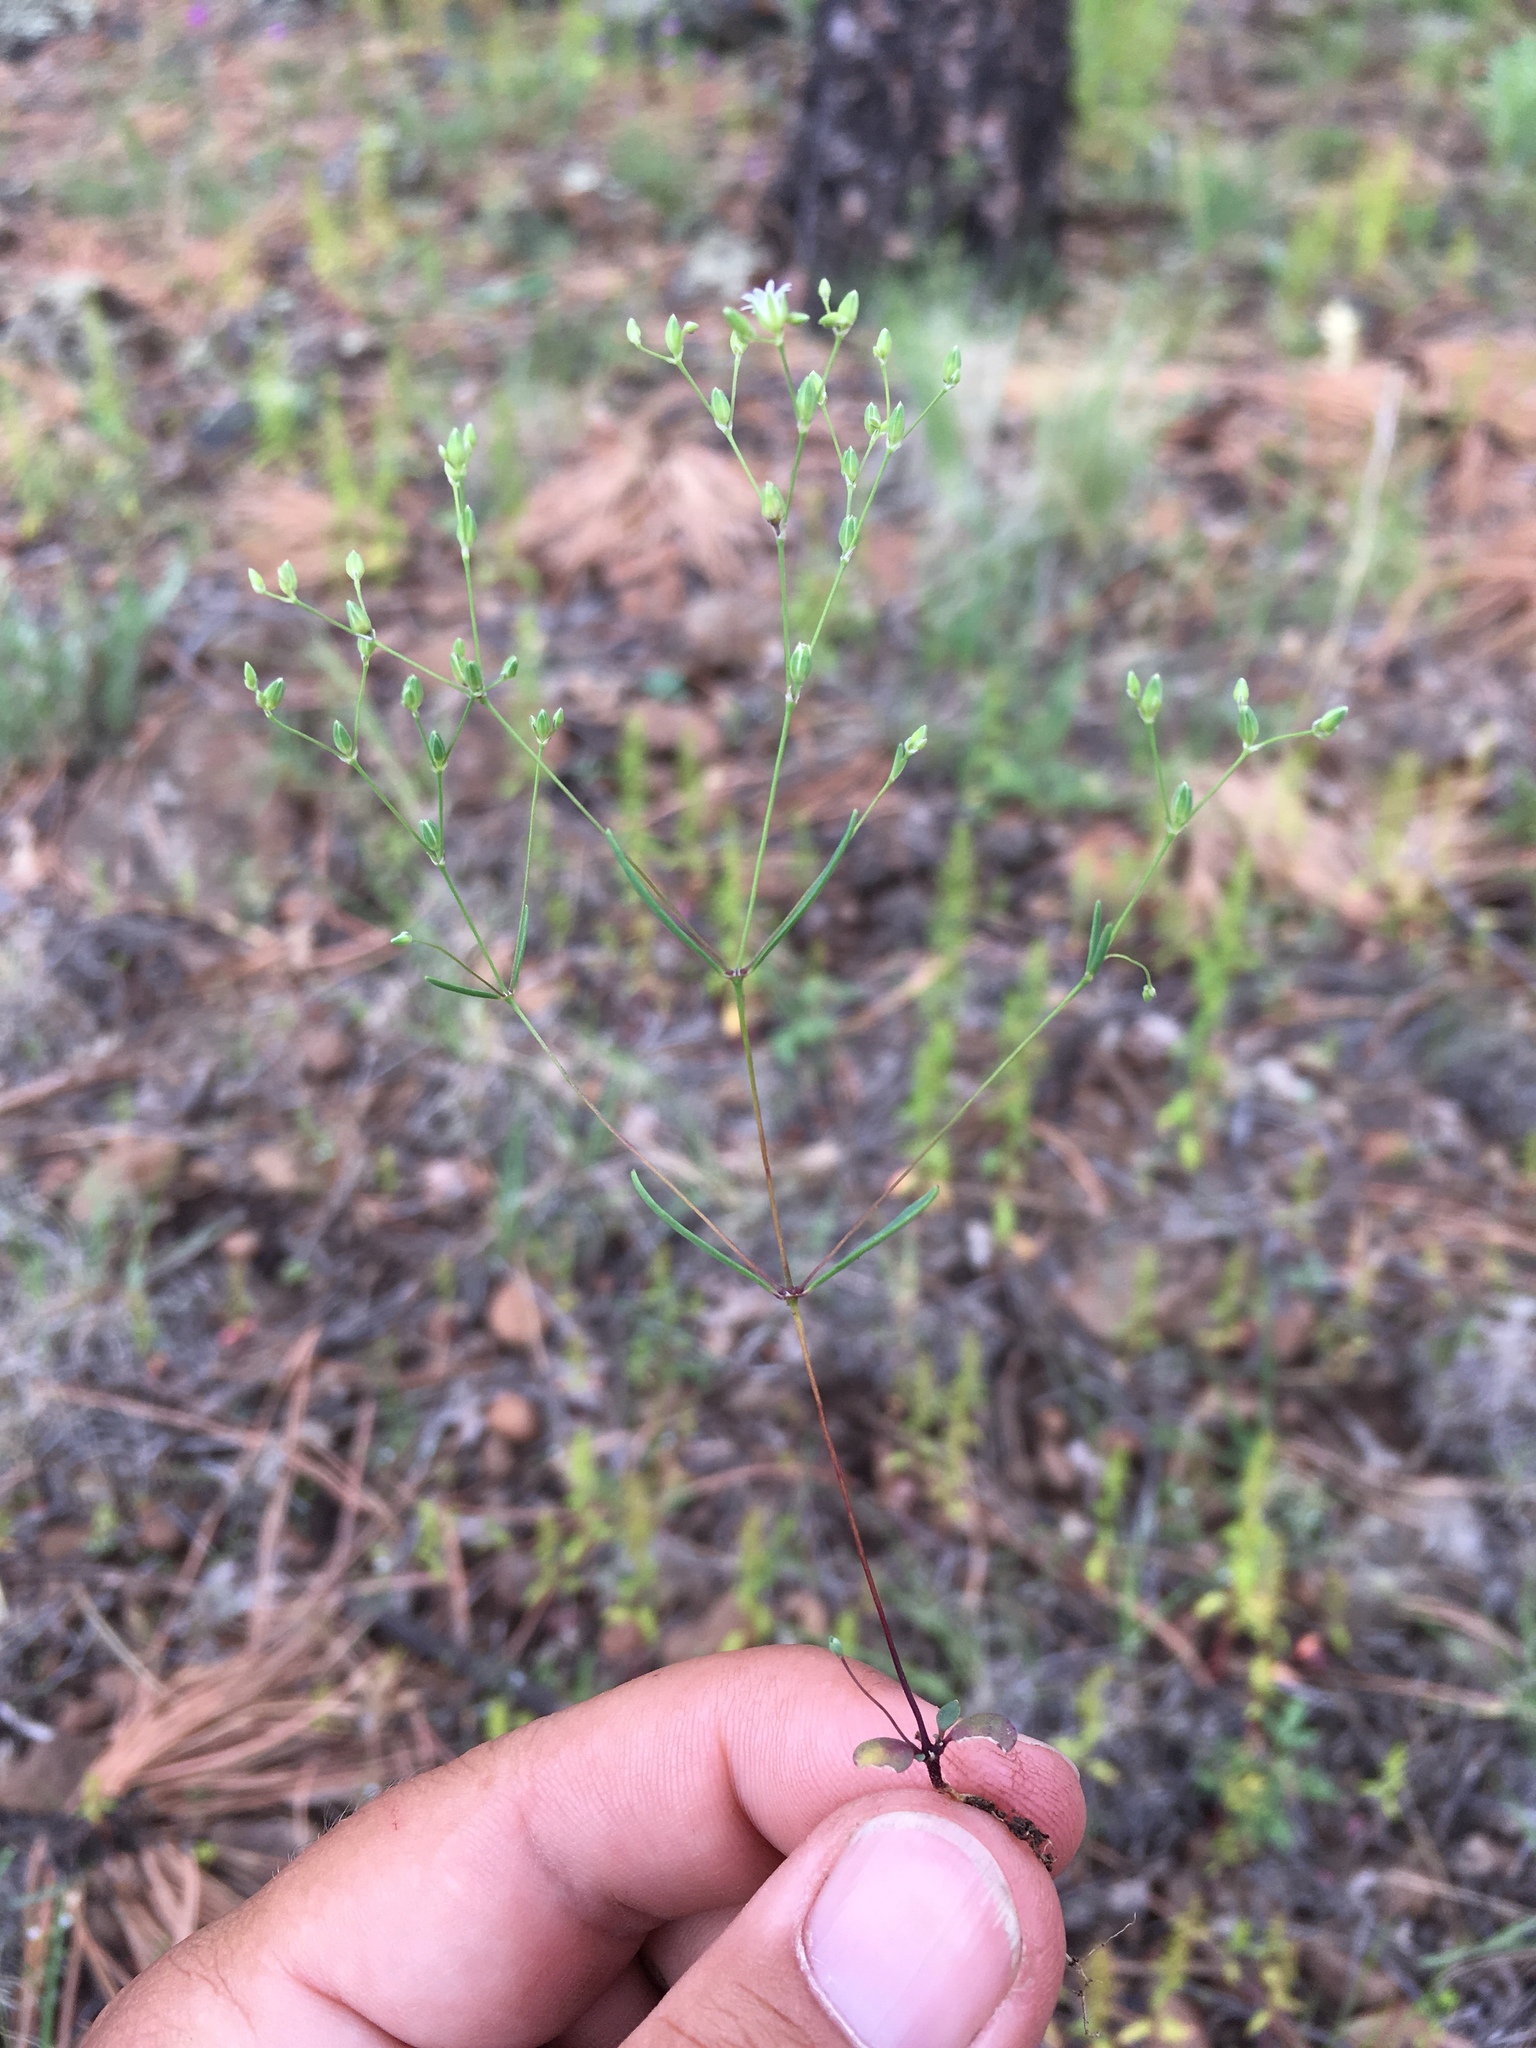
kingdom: Plantae
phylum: Tracheophyta
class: Magnoliopsida
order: Caryophyllales
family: Caryophyllaceae
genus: Drymaria
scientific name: Drymaria leptophylla
